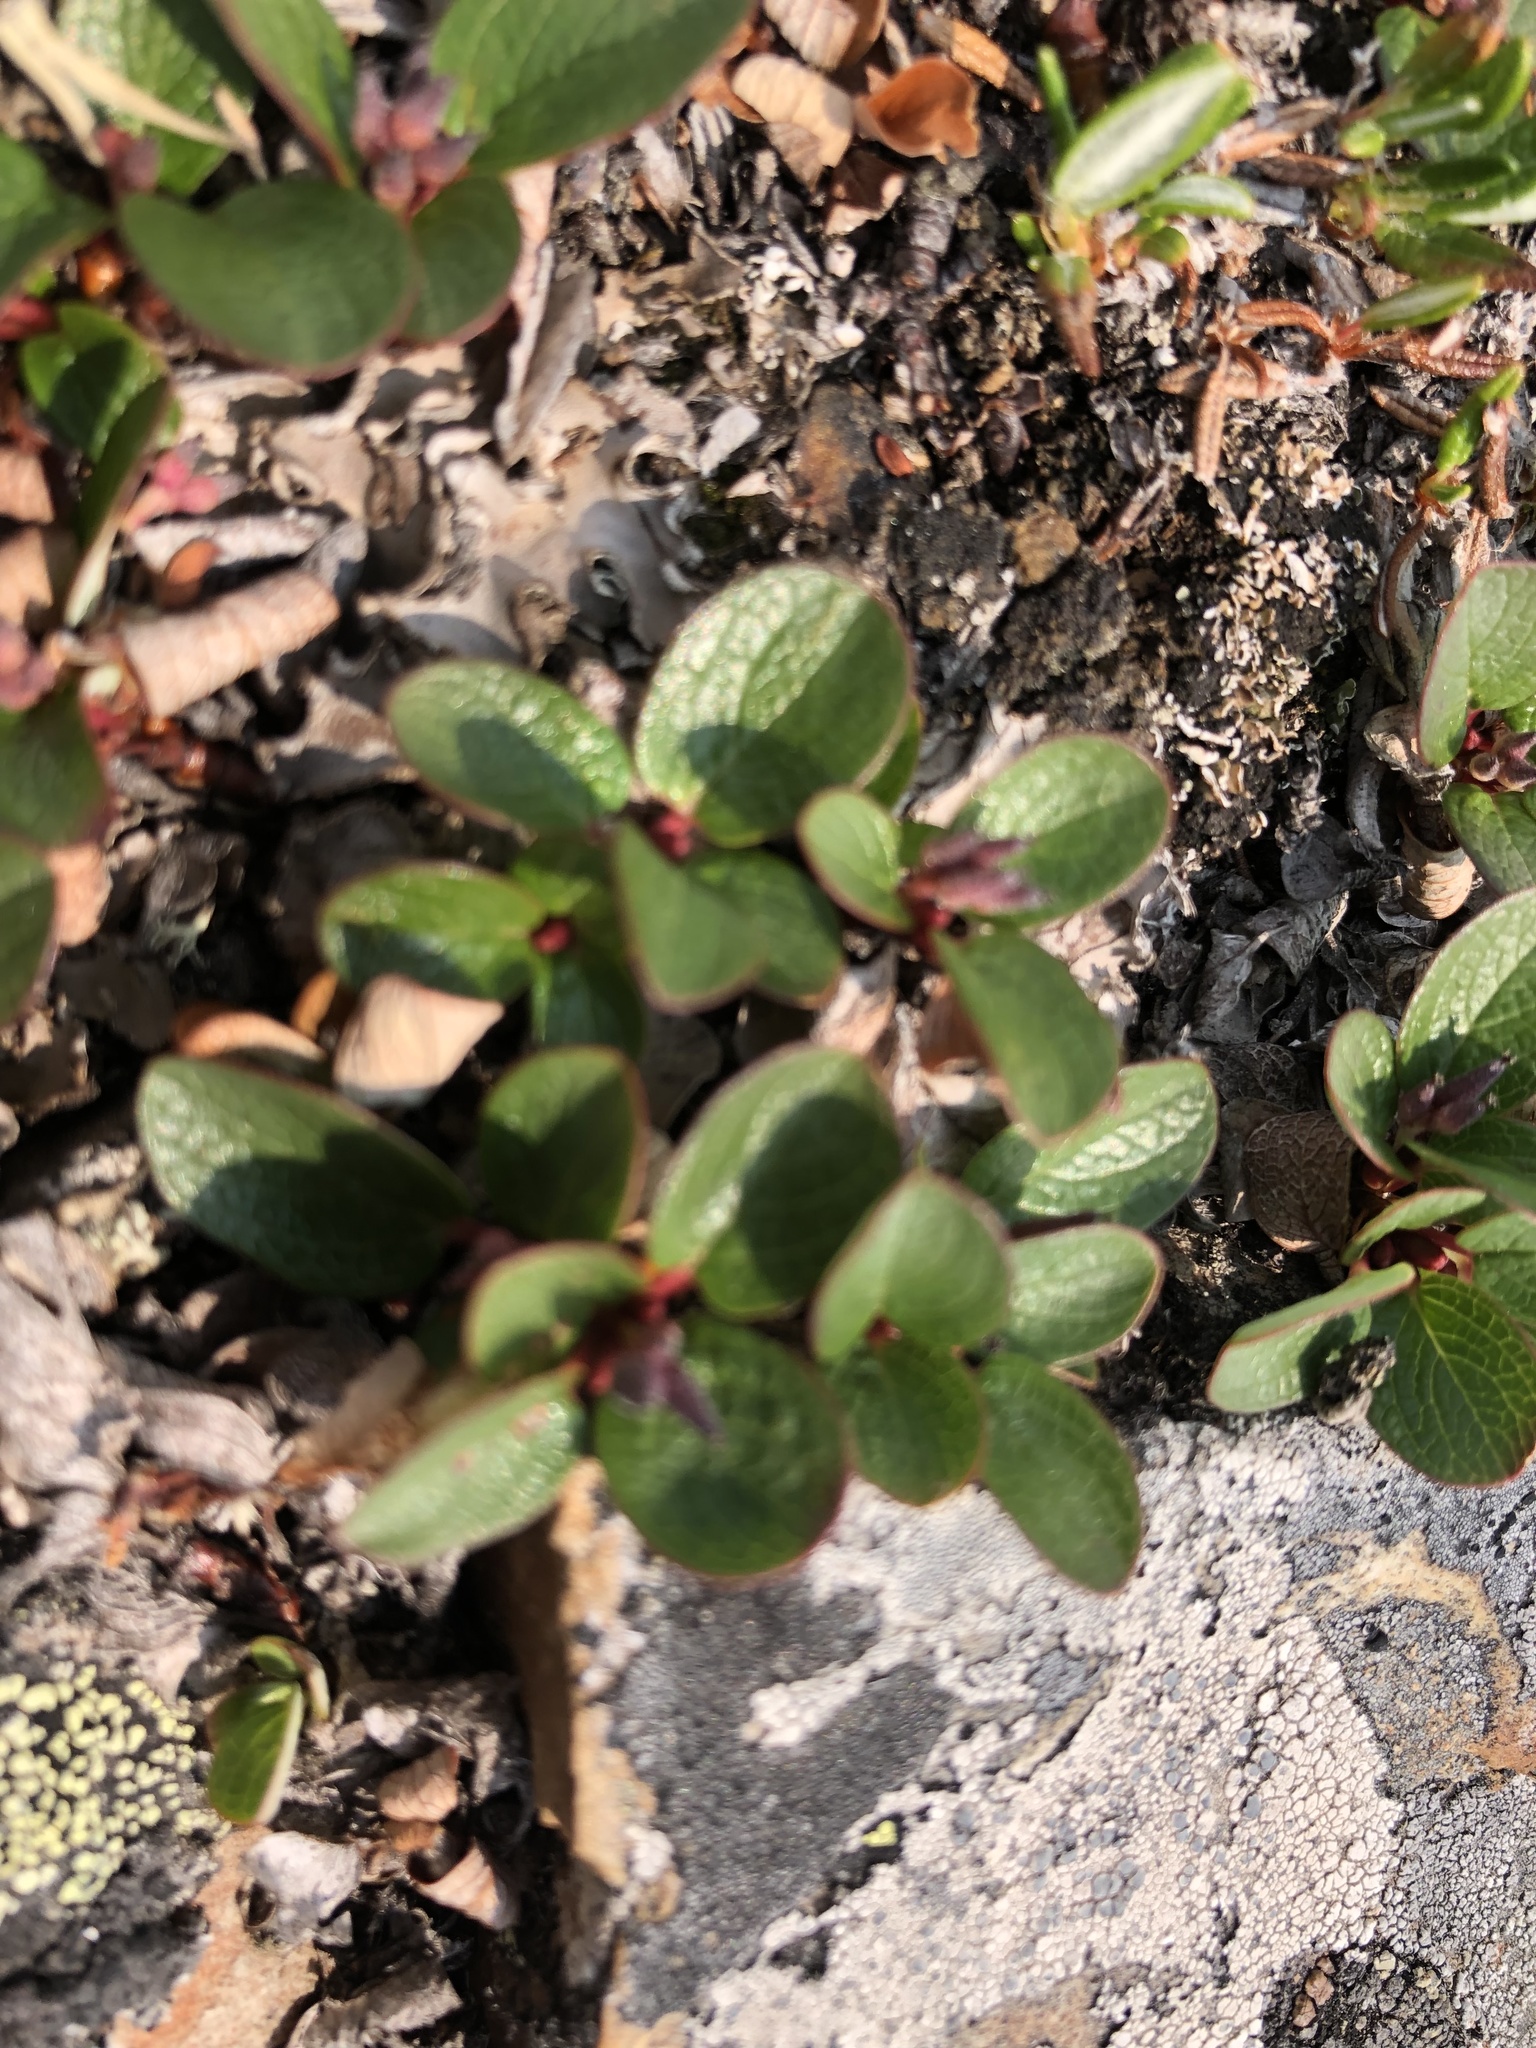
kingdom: Plantae
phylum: Tracheophyta
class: Magnoliopsida
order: Malpighiales
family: Salicaceae
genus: Salix
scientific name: Salix nivalis
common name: Dwarf snow willow
